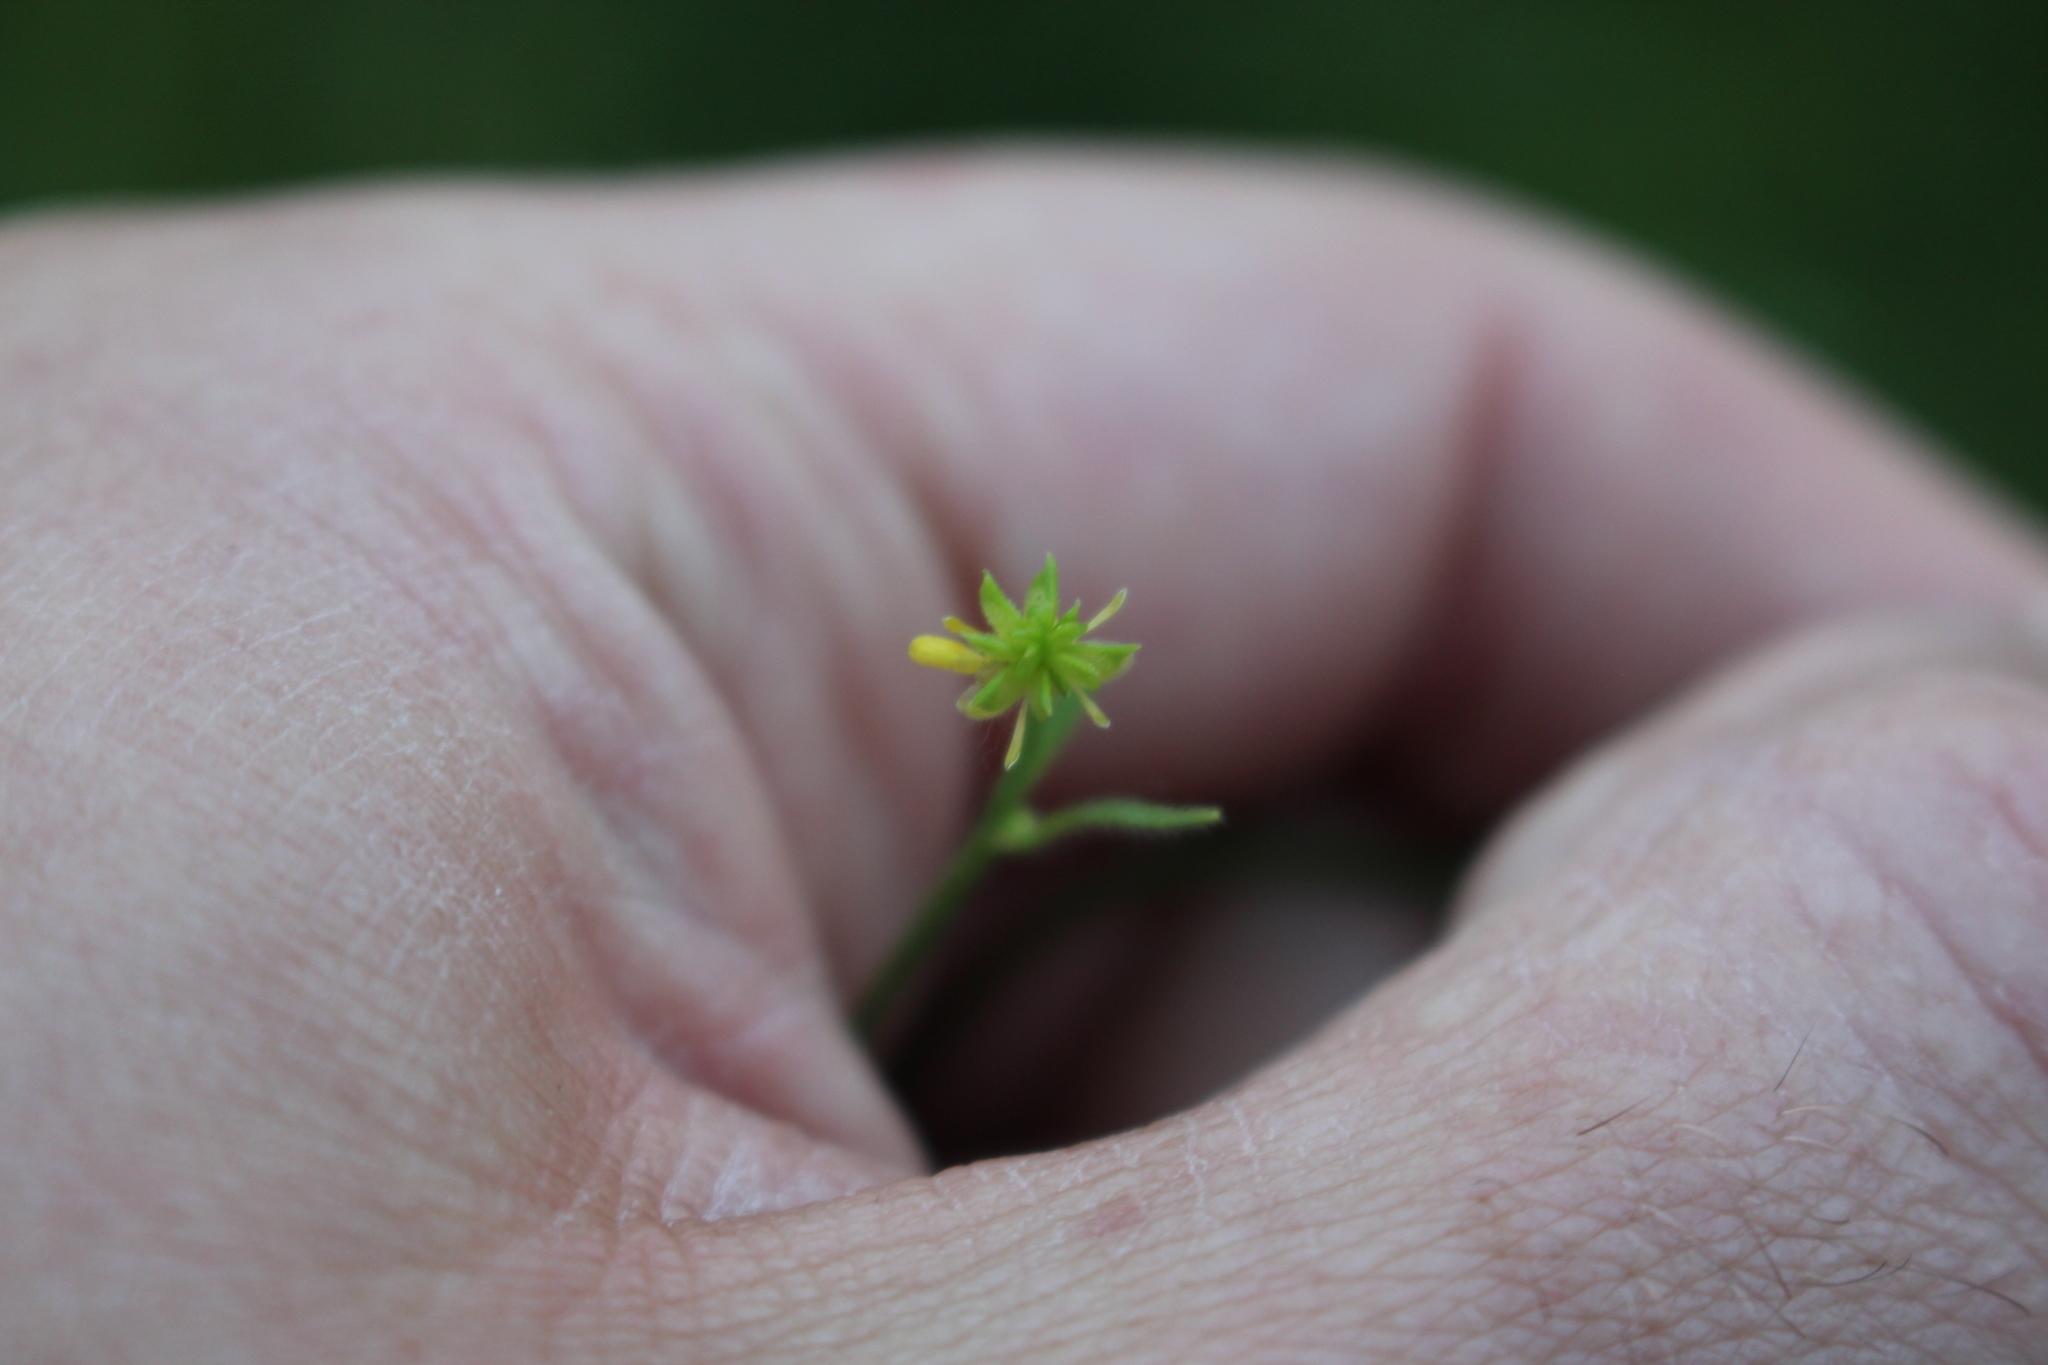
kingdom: Plantae
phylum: Tracheophyta
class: Magnoliopsida
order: Ranunculales
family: Ranunculaceae
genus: Ranunculus
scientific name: Ranunculus parviflorus
